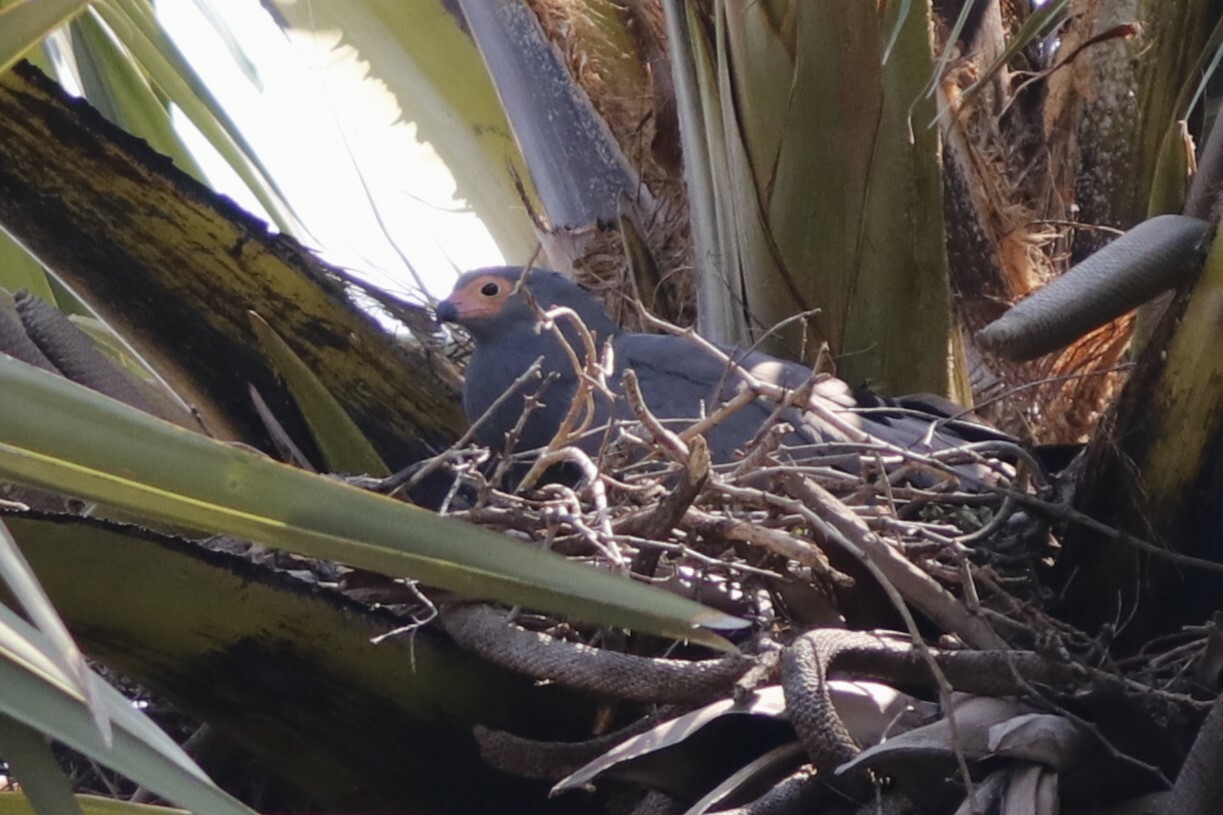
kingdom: Animalia
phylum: Chordata
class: Aves
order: Accipitriformes
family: Accipitridae
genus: Polyboroides
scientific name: Polyboroides typus
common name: African harrier-hawk
